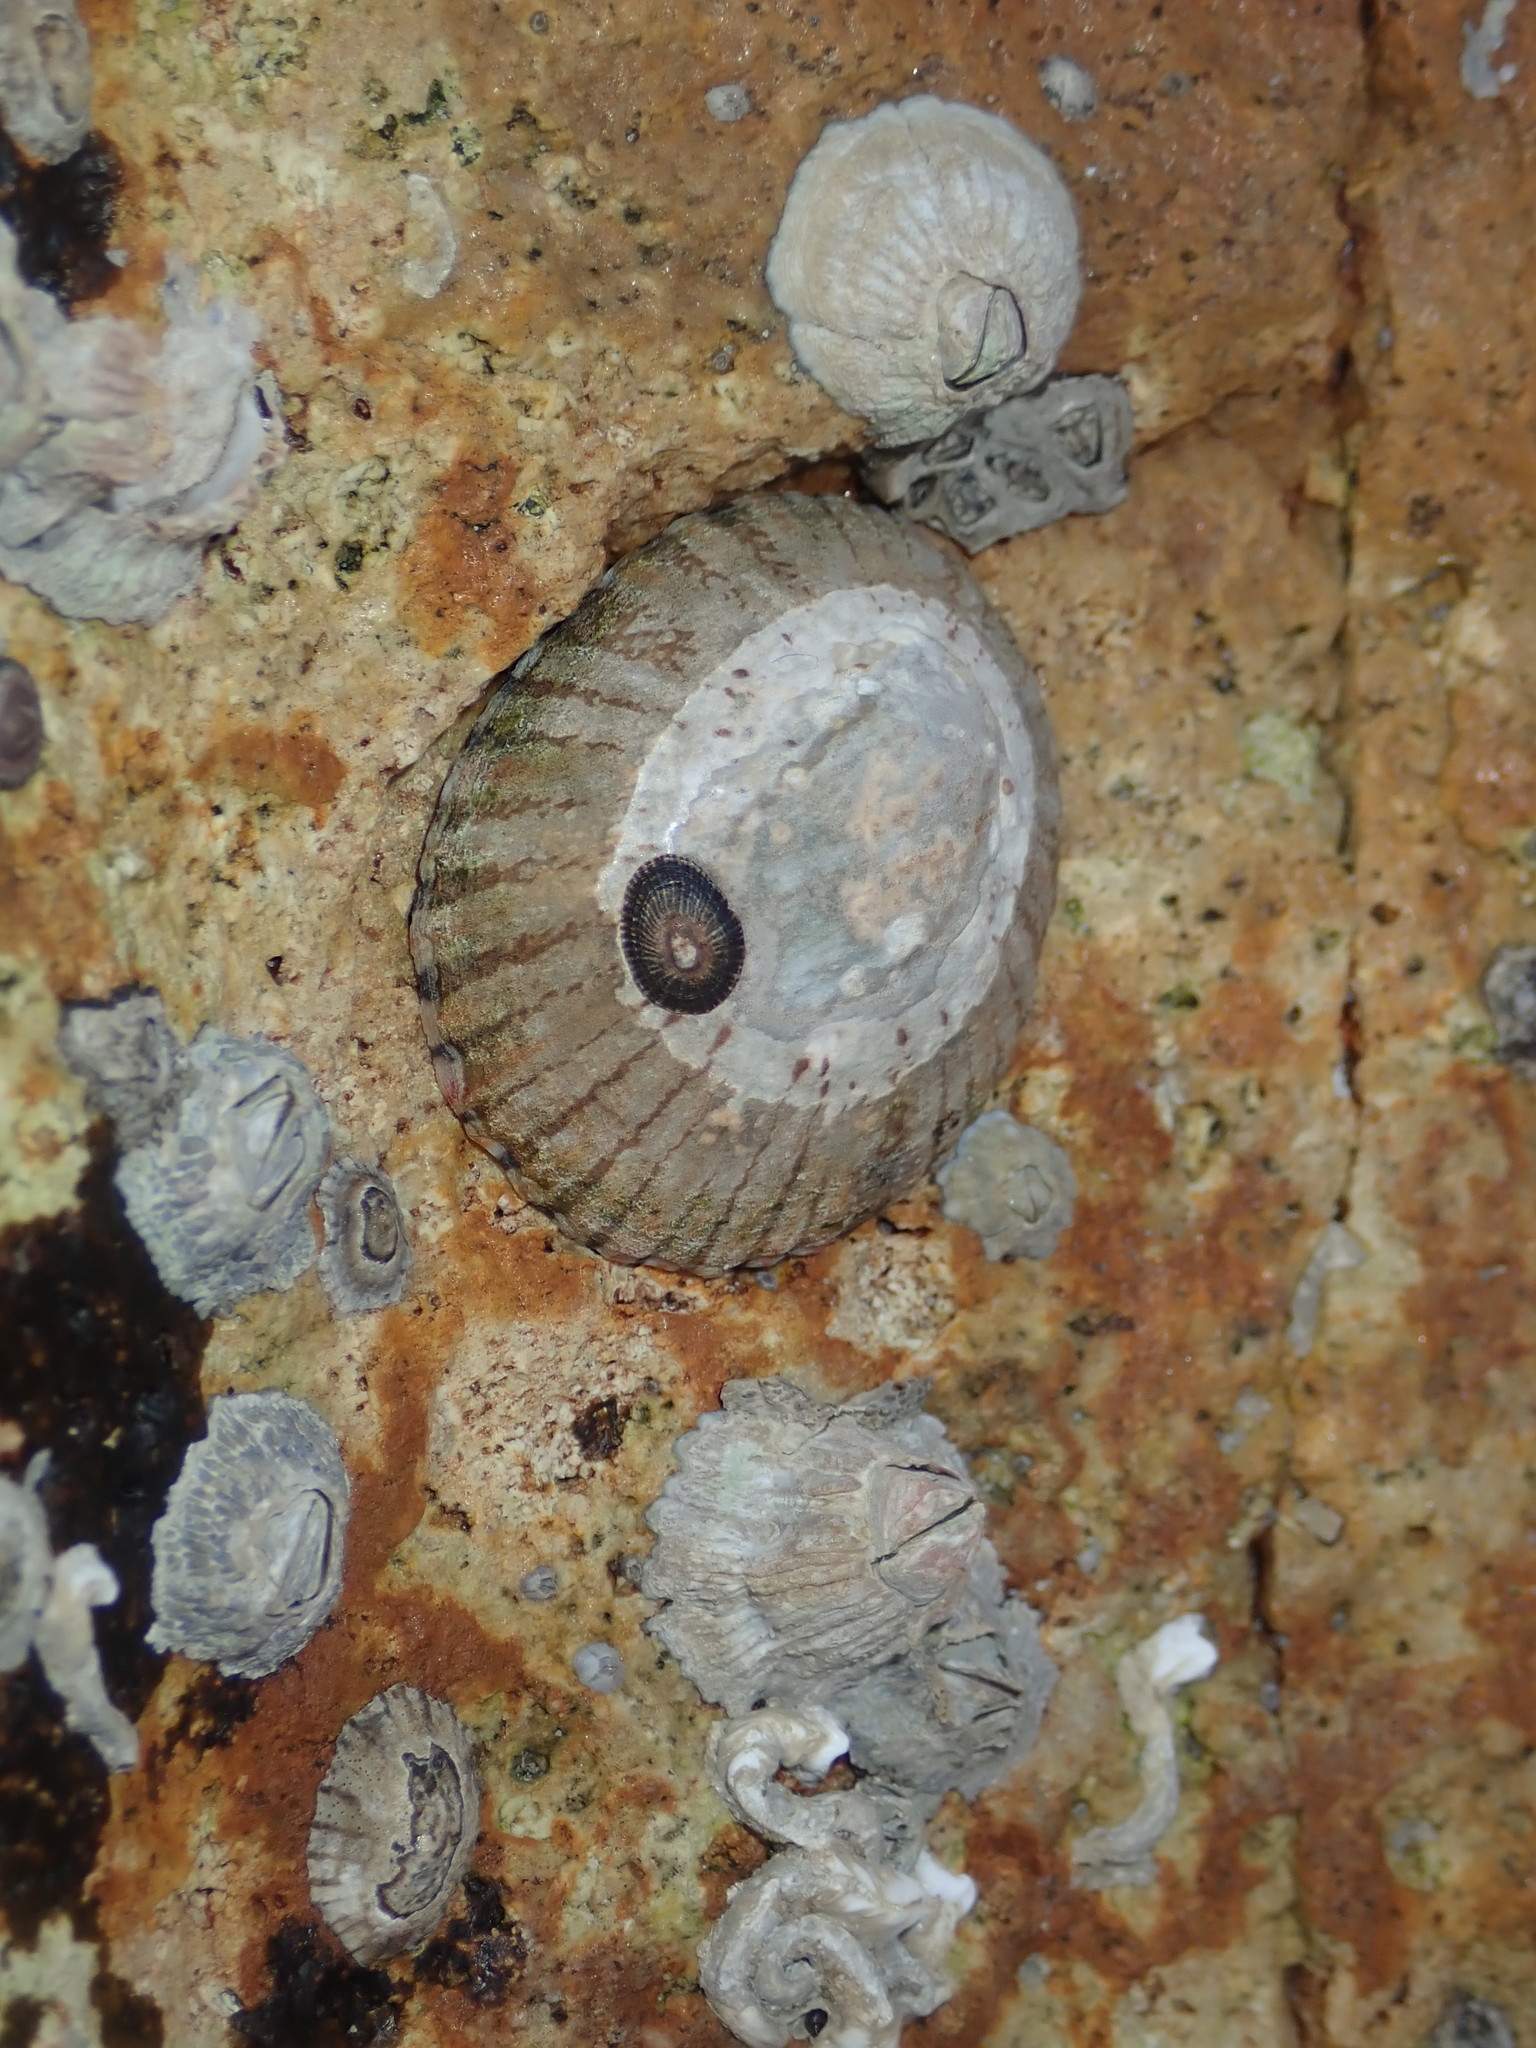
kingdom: Animalia
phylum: Mollusca
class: Gastropoda
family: Nacellidae
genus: Cellana
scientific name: Cellana tramoserica
